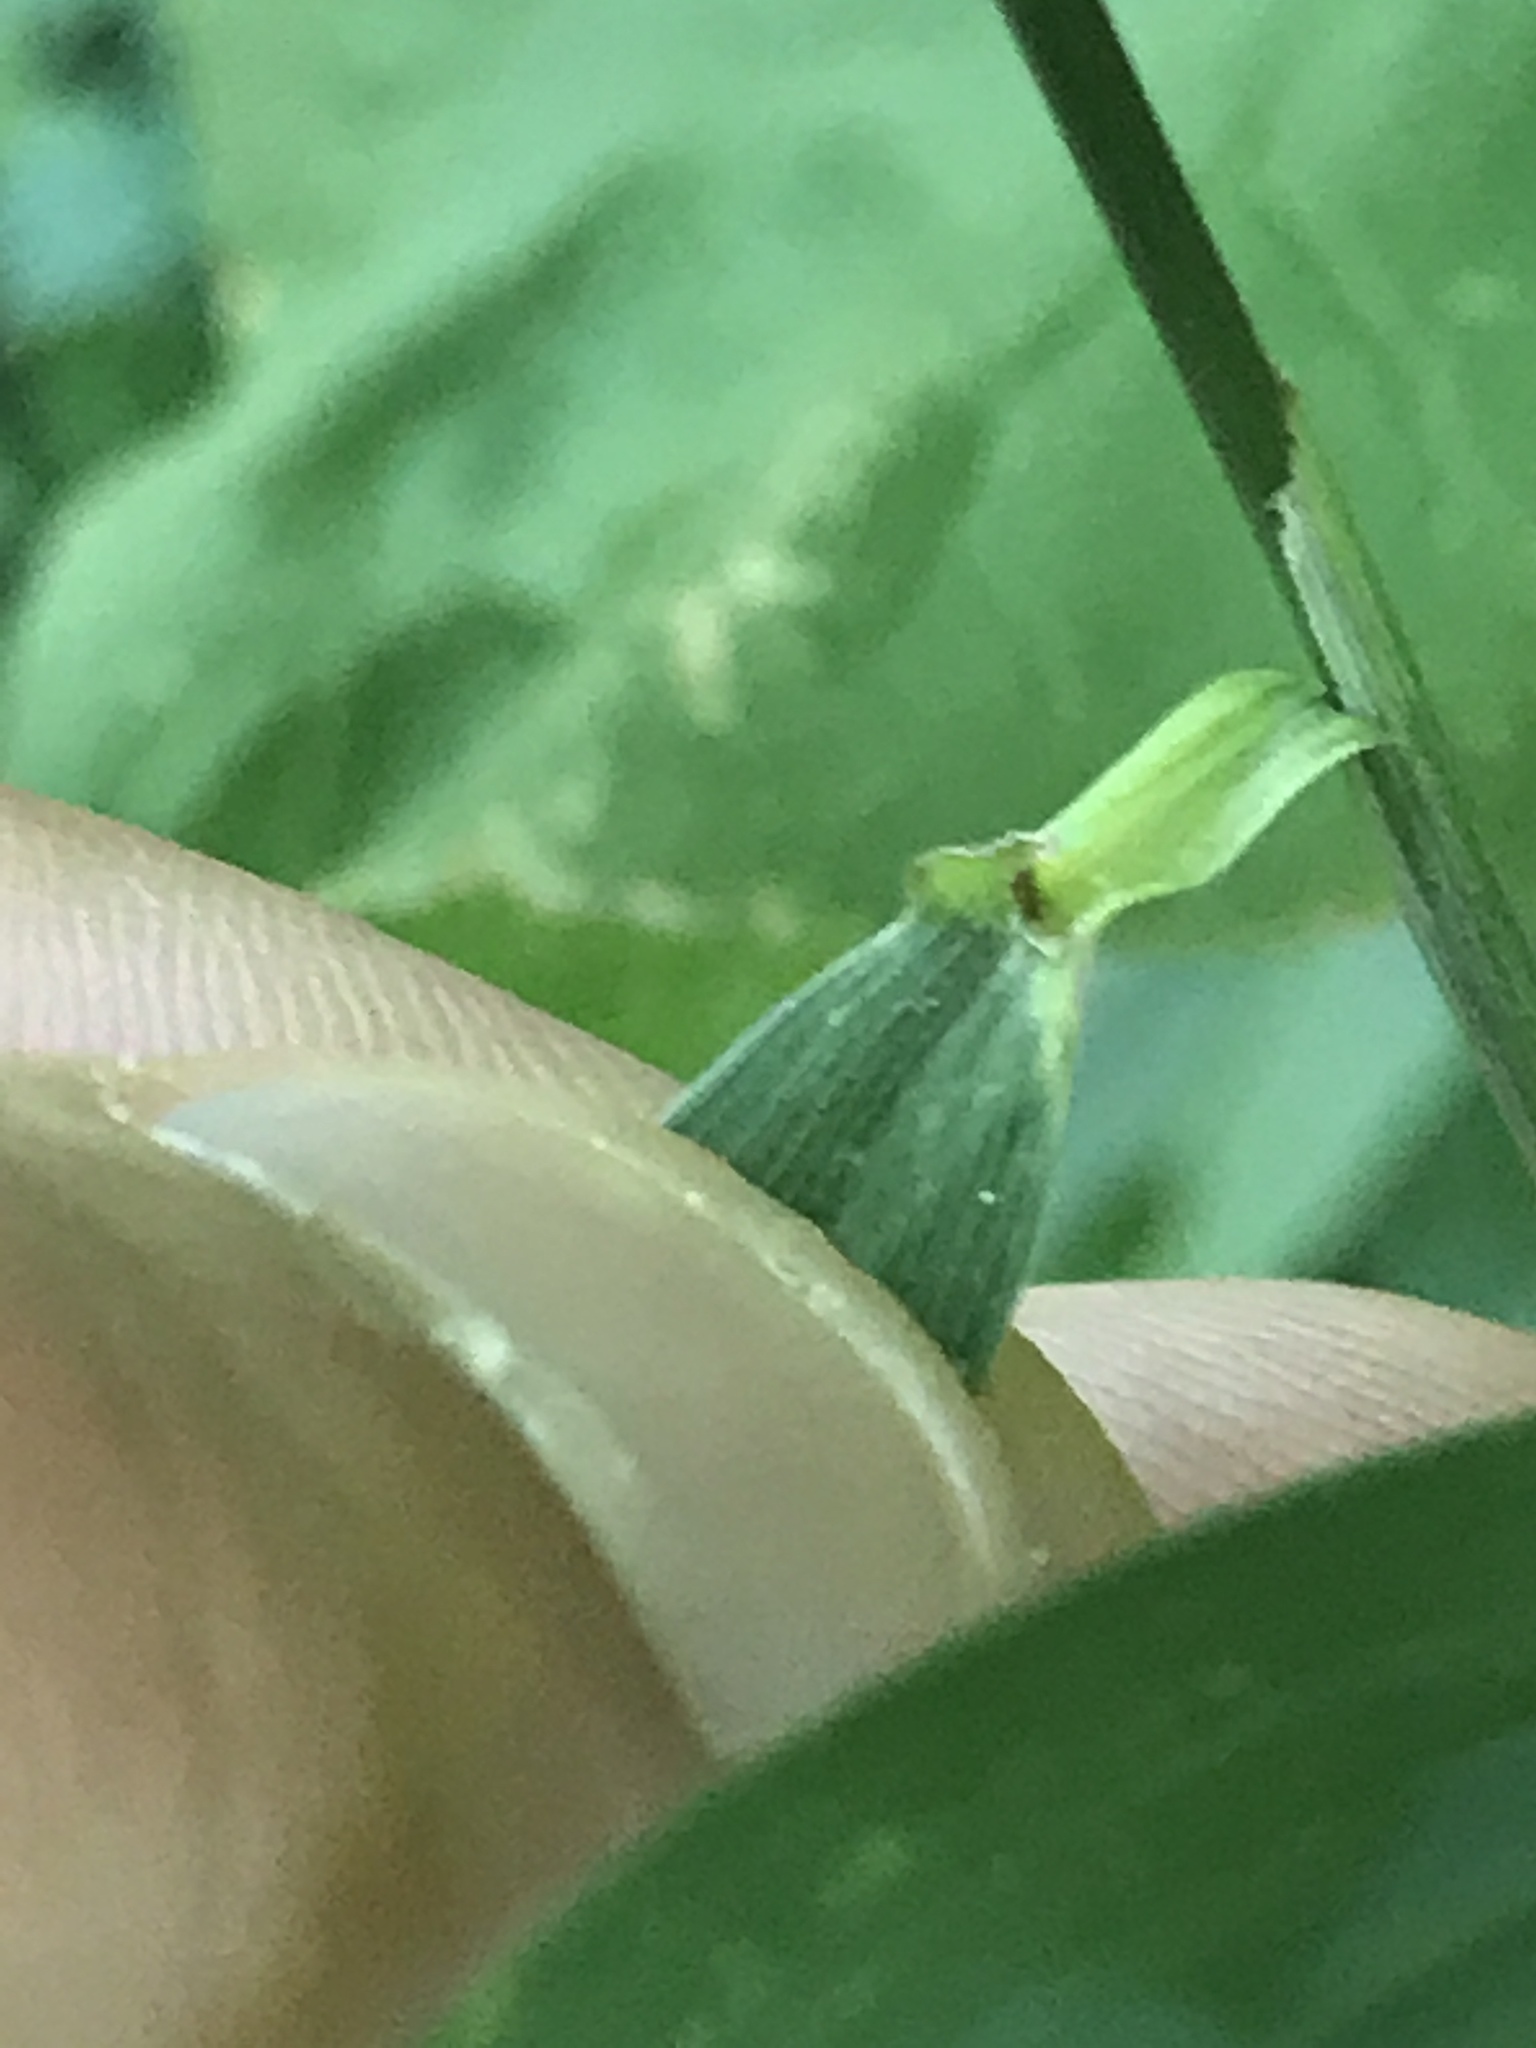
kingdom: Plantae
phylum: Tracheophyta
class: Liliopsida
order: Poales
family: Poaceae
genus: Elymus
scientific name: Elymus hystrix
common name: Bottlebrush grass
